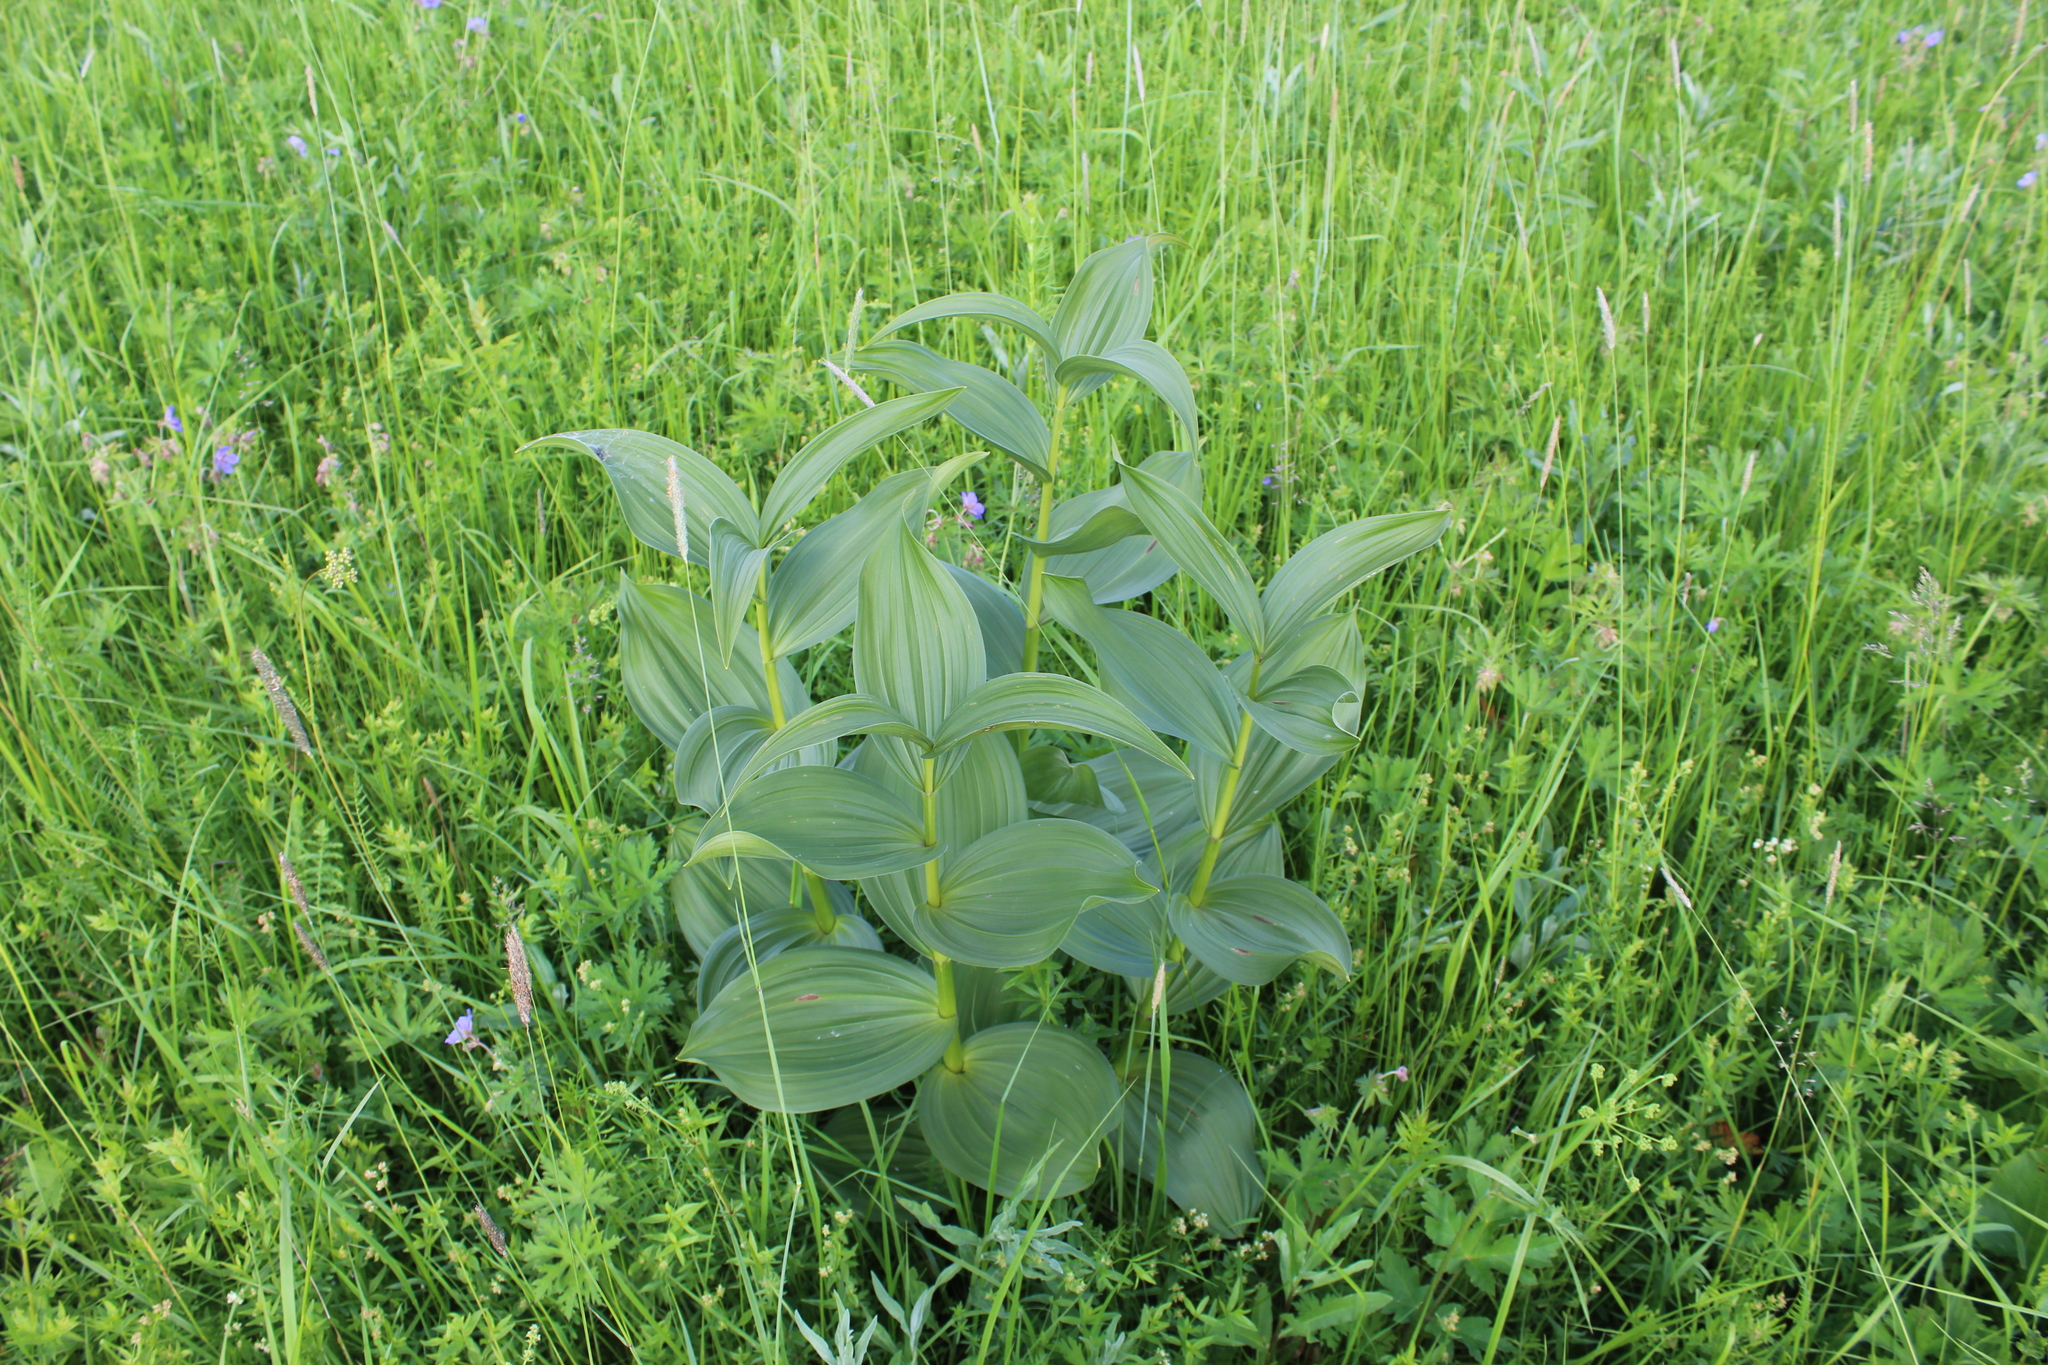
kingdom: Plantae
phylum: Tracheophyta
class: Liliopsida
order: Liliales
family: Melanthiaceae
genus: Veratrum
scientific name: Veratrum lobelianum
